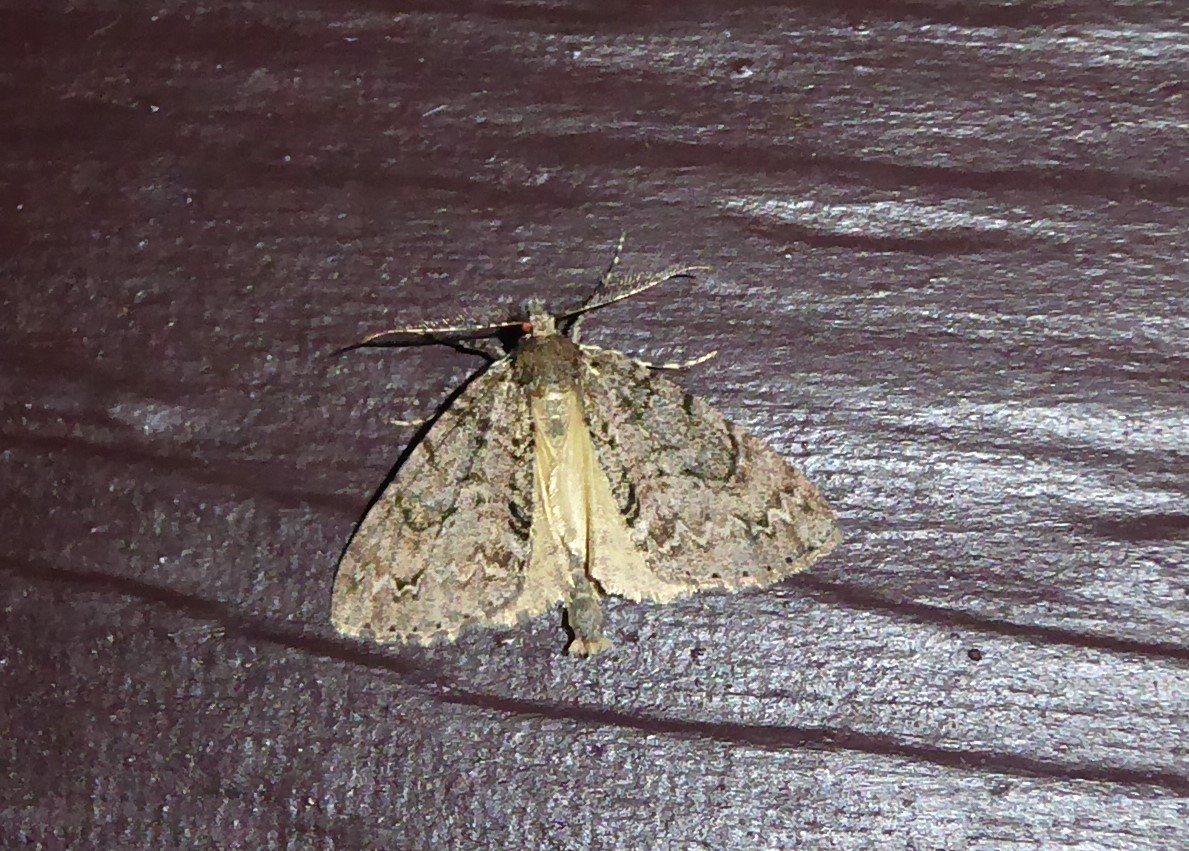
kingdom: Animalia
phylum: Arthropoda
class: Insecta
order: Lepidoptera
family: Geometridae
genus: Pseudocoremia
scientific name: Pseudocoremia suavis
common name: Common forest looper
